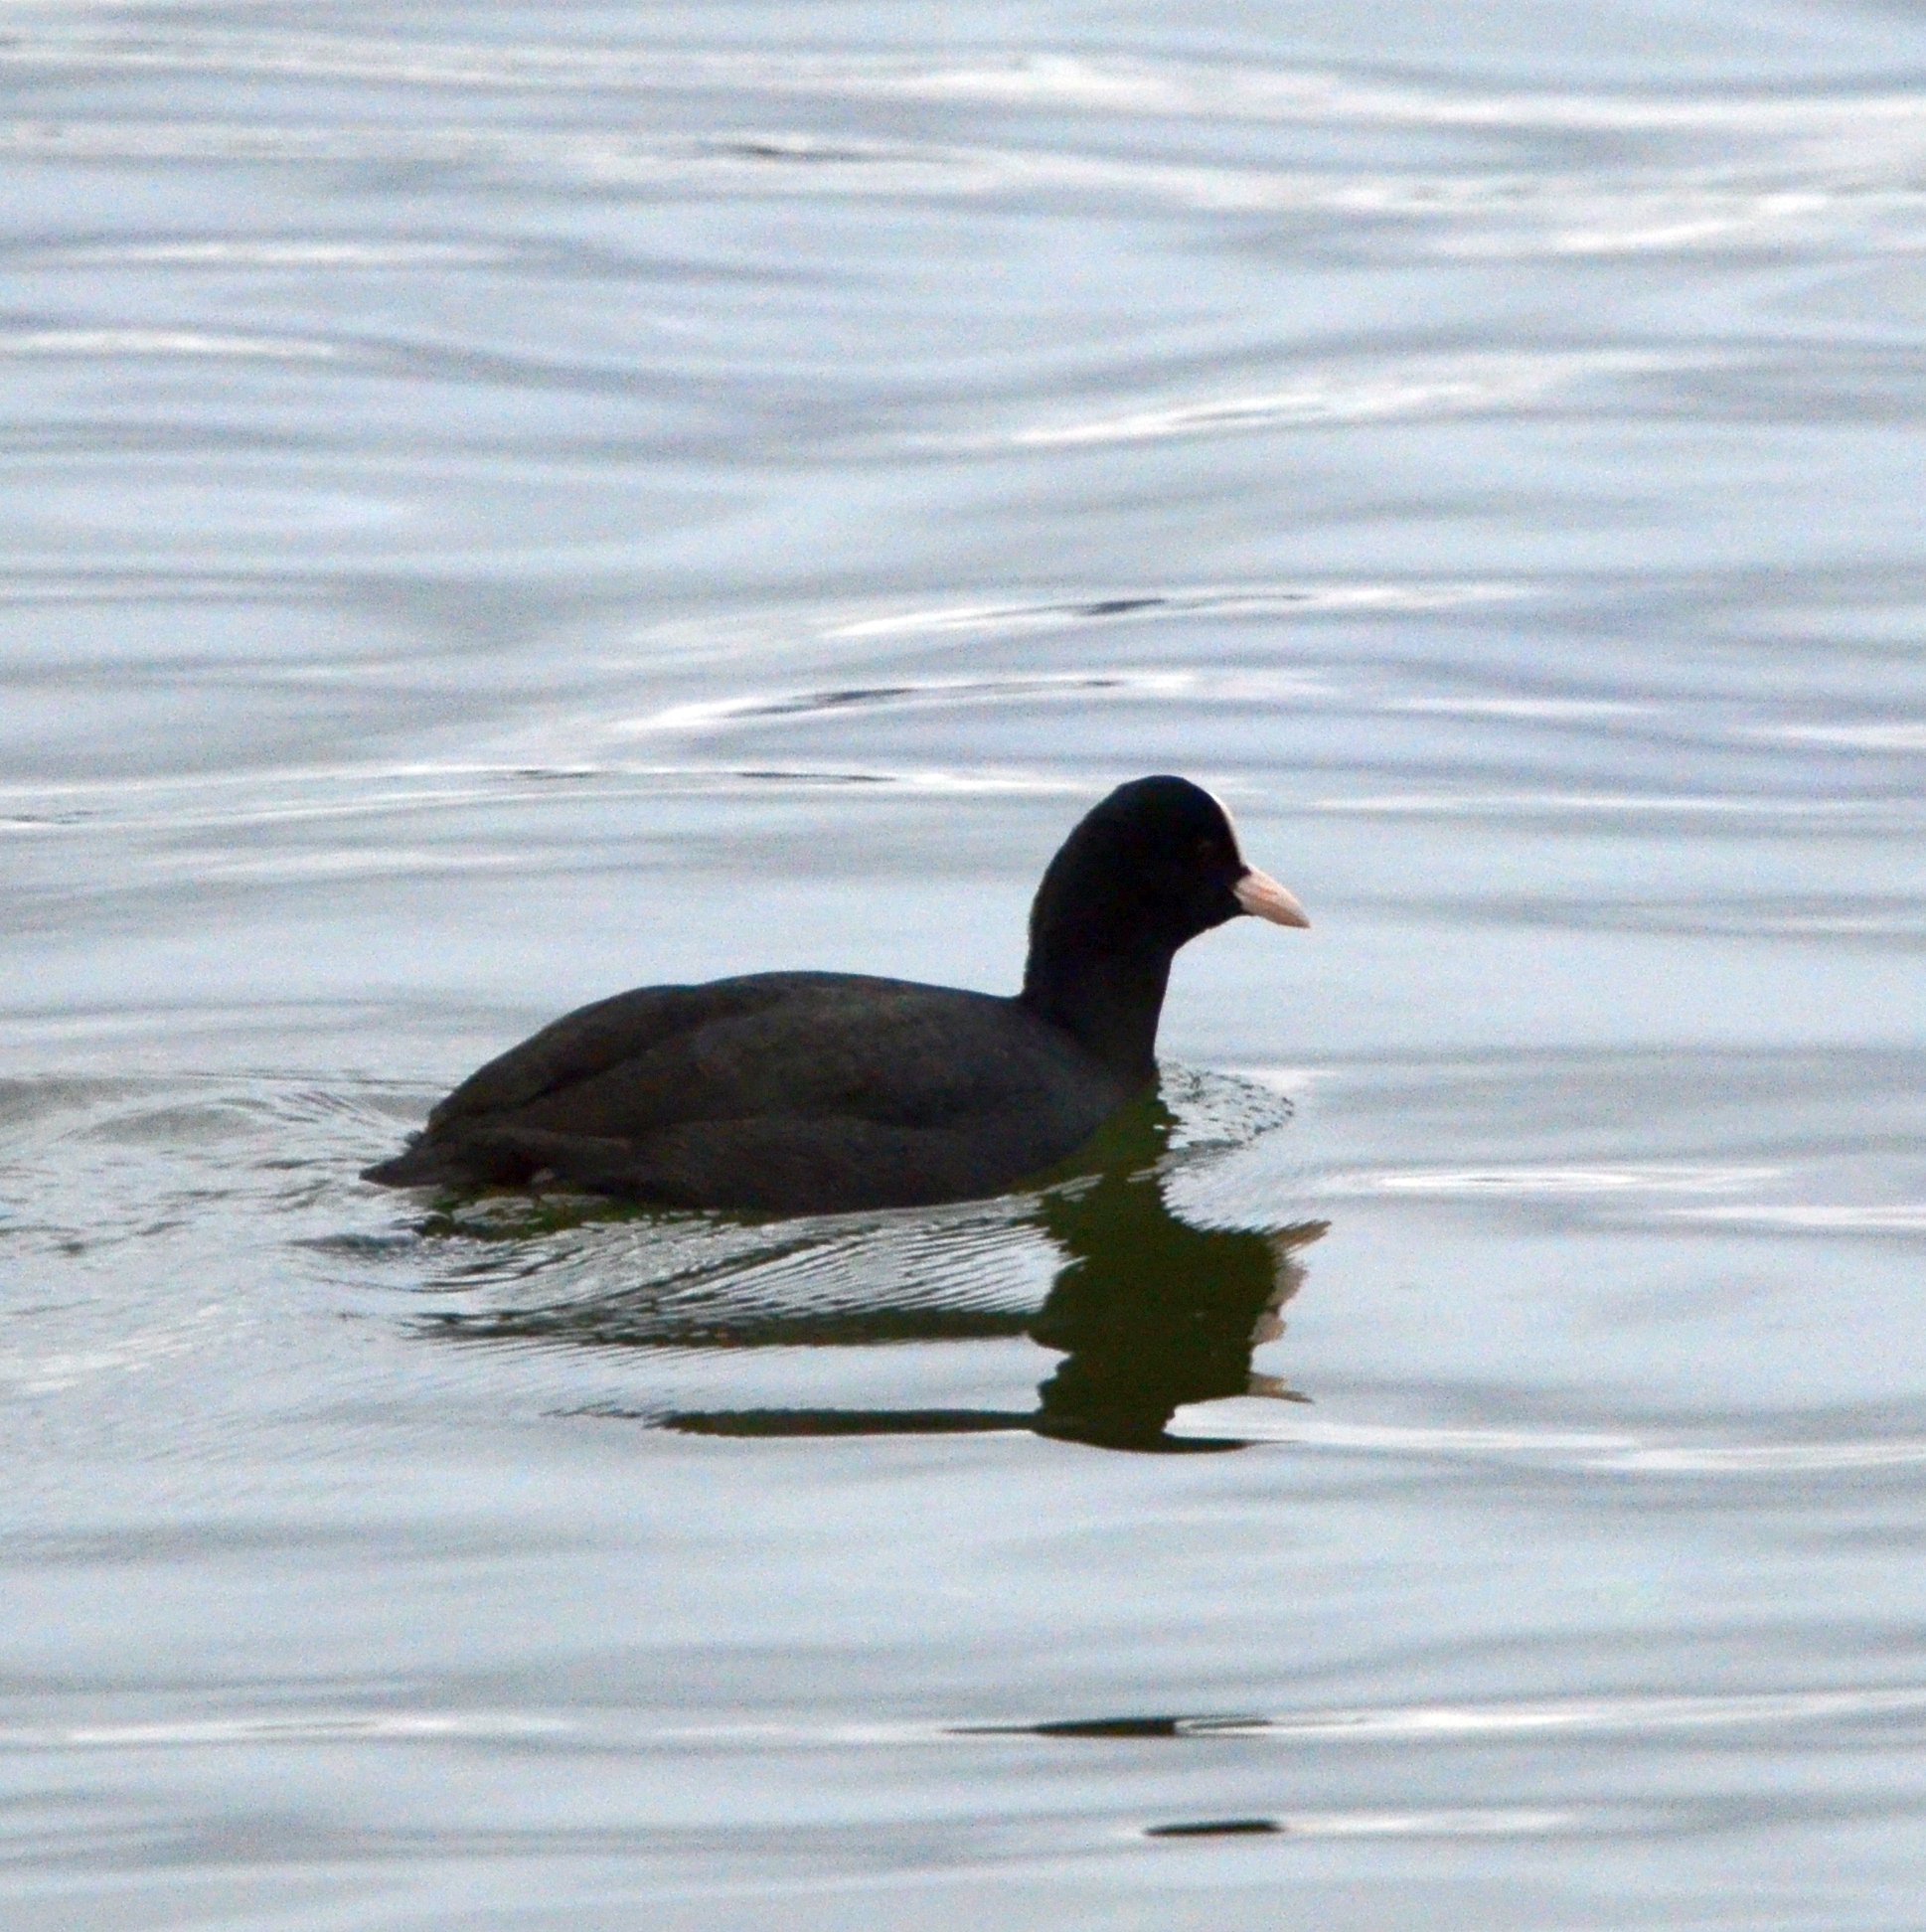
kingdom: Animalia
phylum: Chordata
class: Aves
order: Gruiformes
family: Rallidae
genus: Fulica
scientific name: Fulica atra
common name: Eurasian coot
